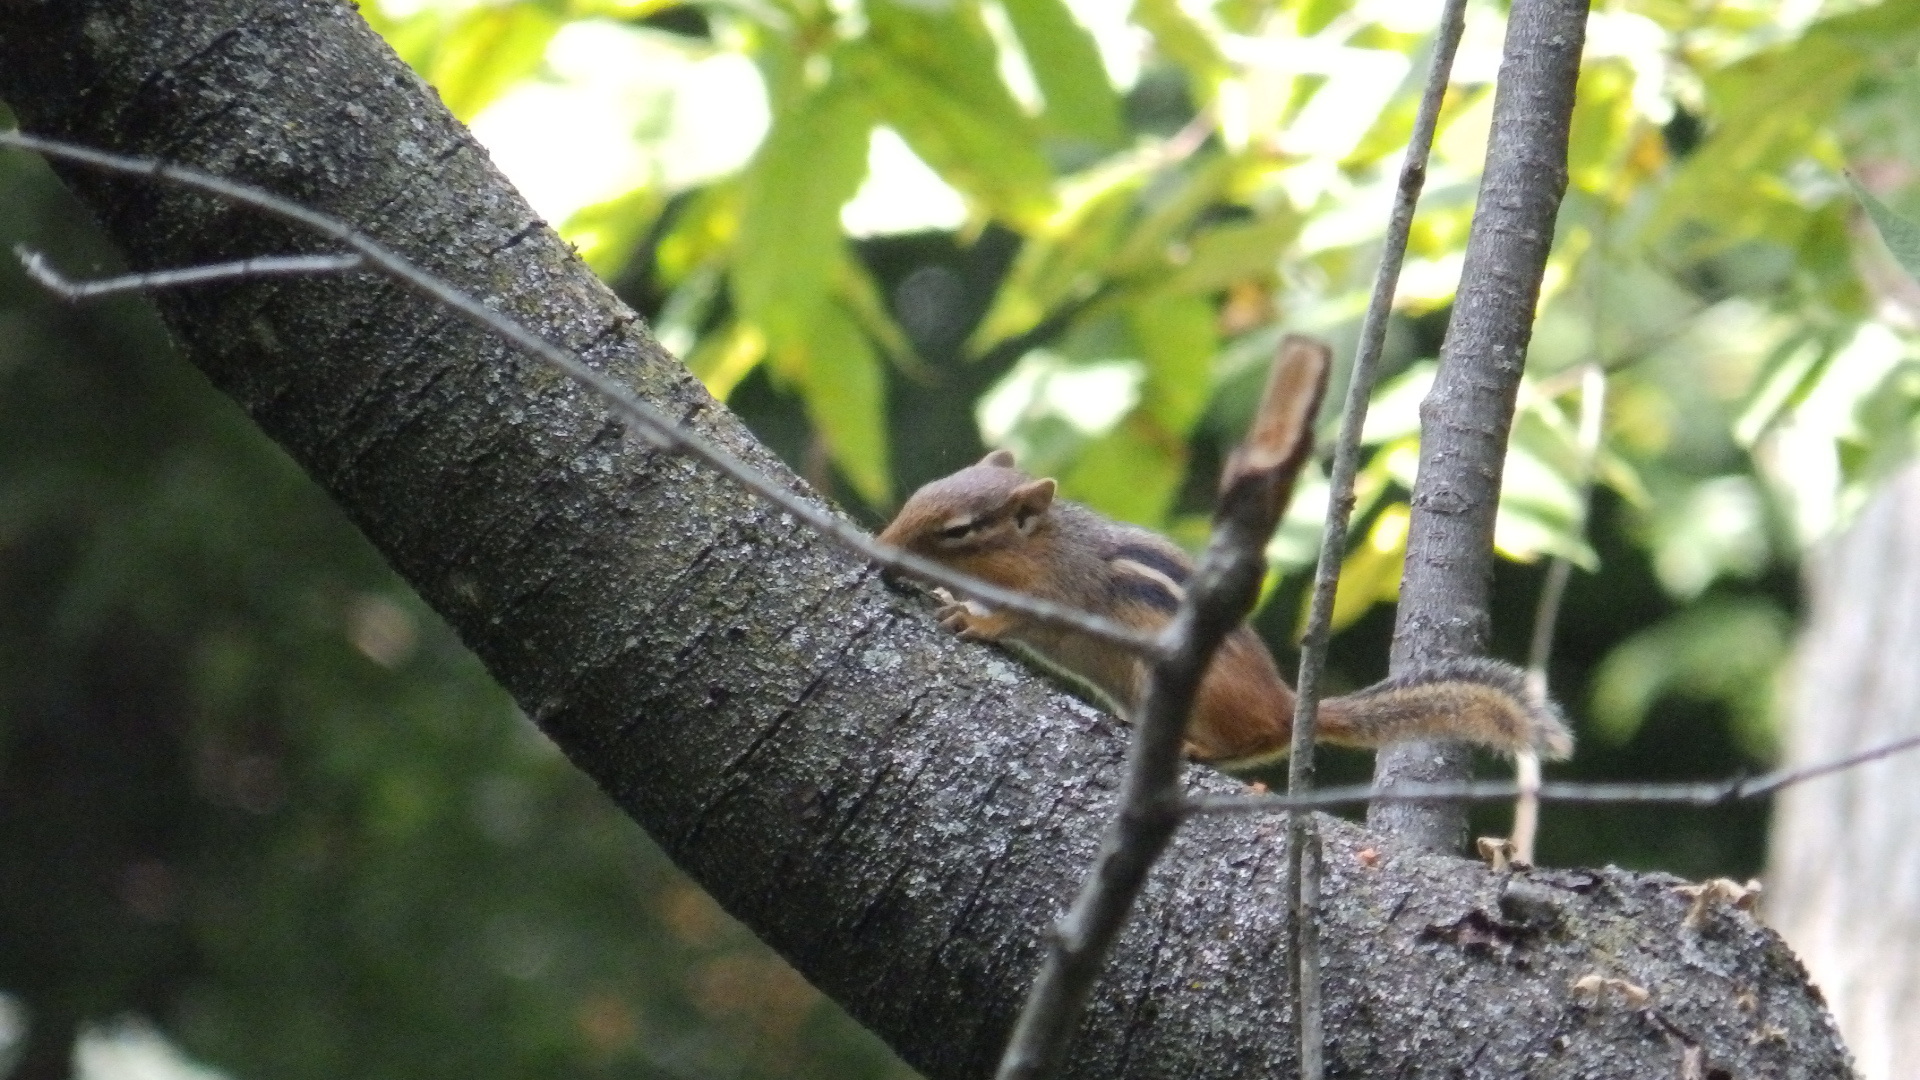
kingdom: Animalia
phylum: Chordata
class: Mammalia
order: Rodentia
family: Sciuridae
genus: Tamias
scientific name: Tamias striatus
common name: Eastern chipmunk
